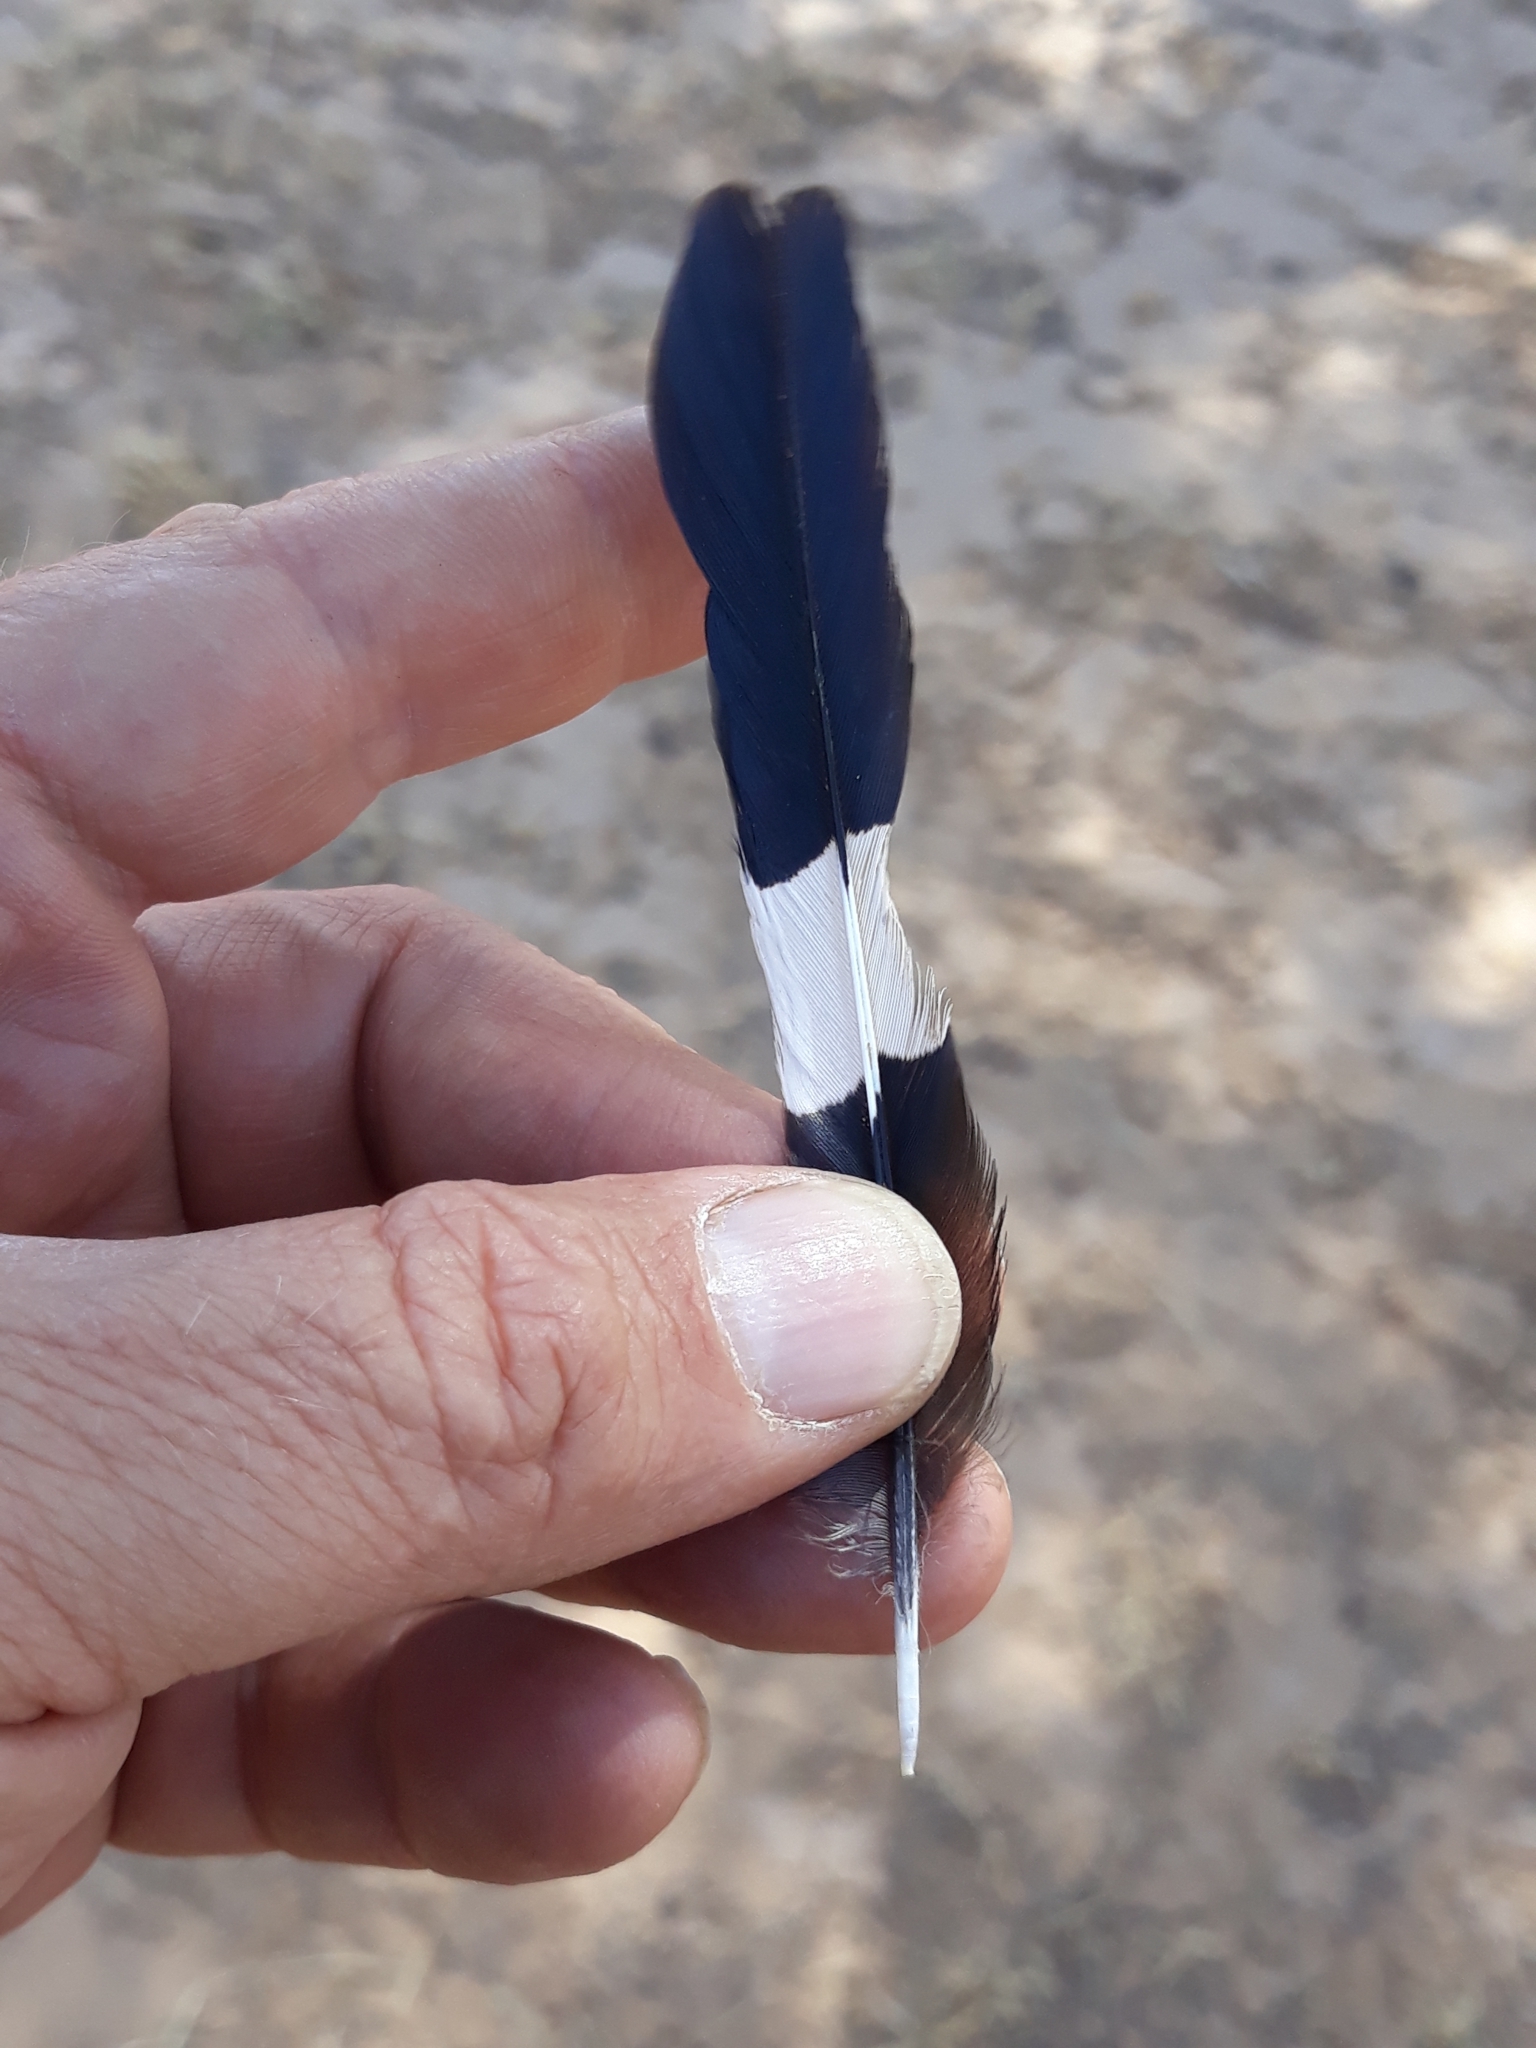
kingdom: Animalia
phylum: Chordata
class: Aves
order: Bucerotiformes
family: Upupidae
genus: Upupa
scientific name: Upupa epops
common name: Eurasian hoopoe
